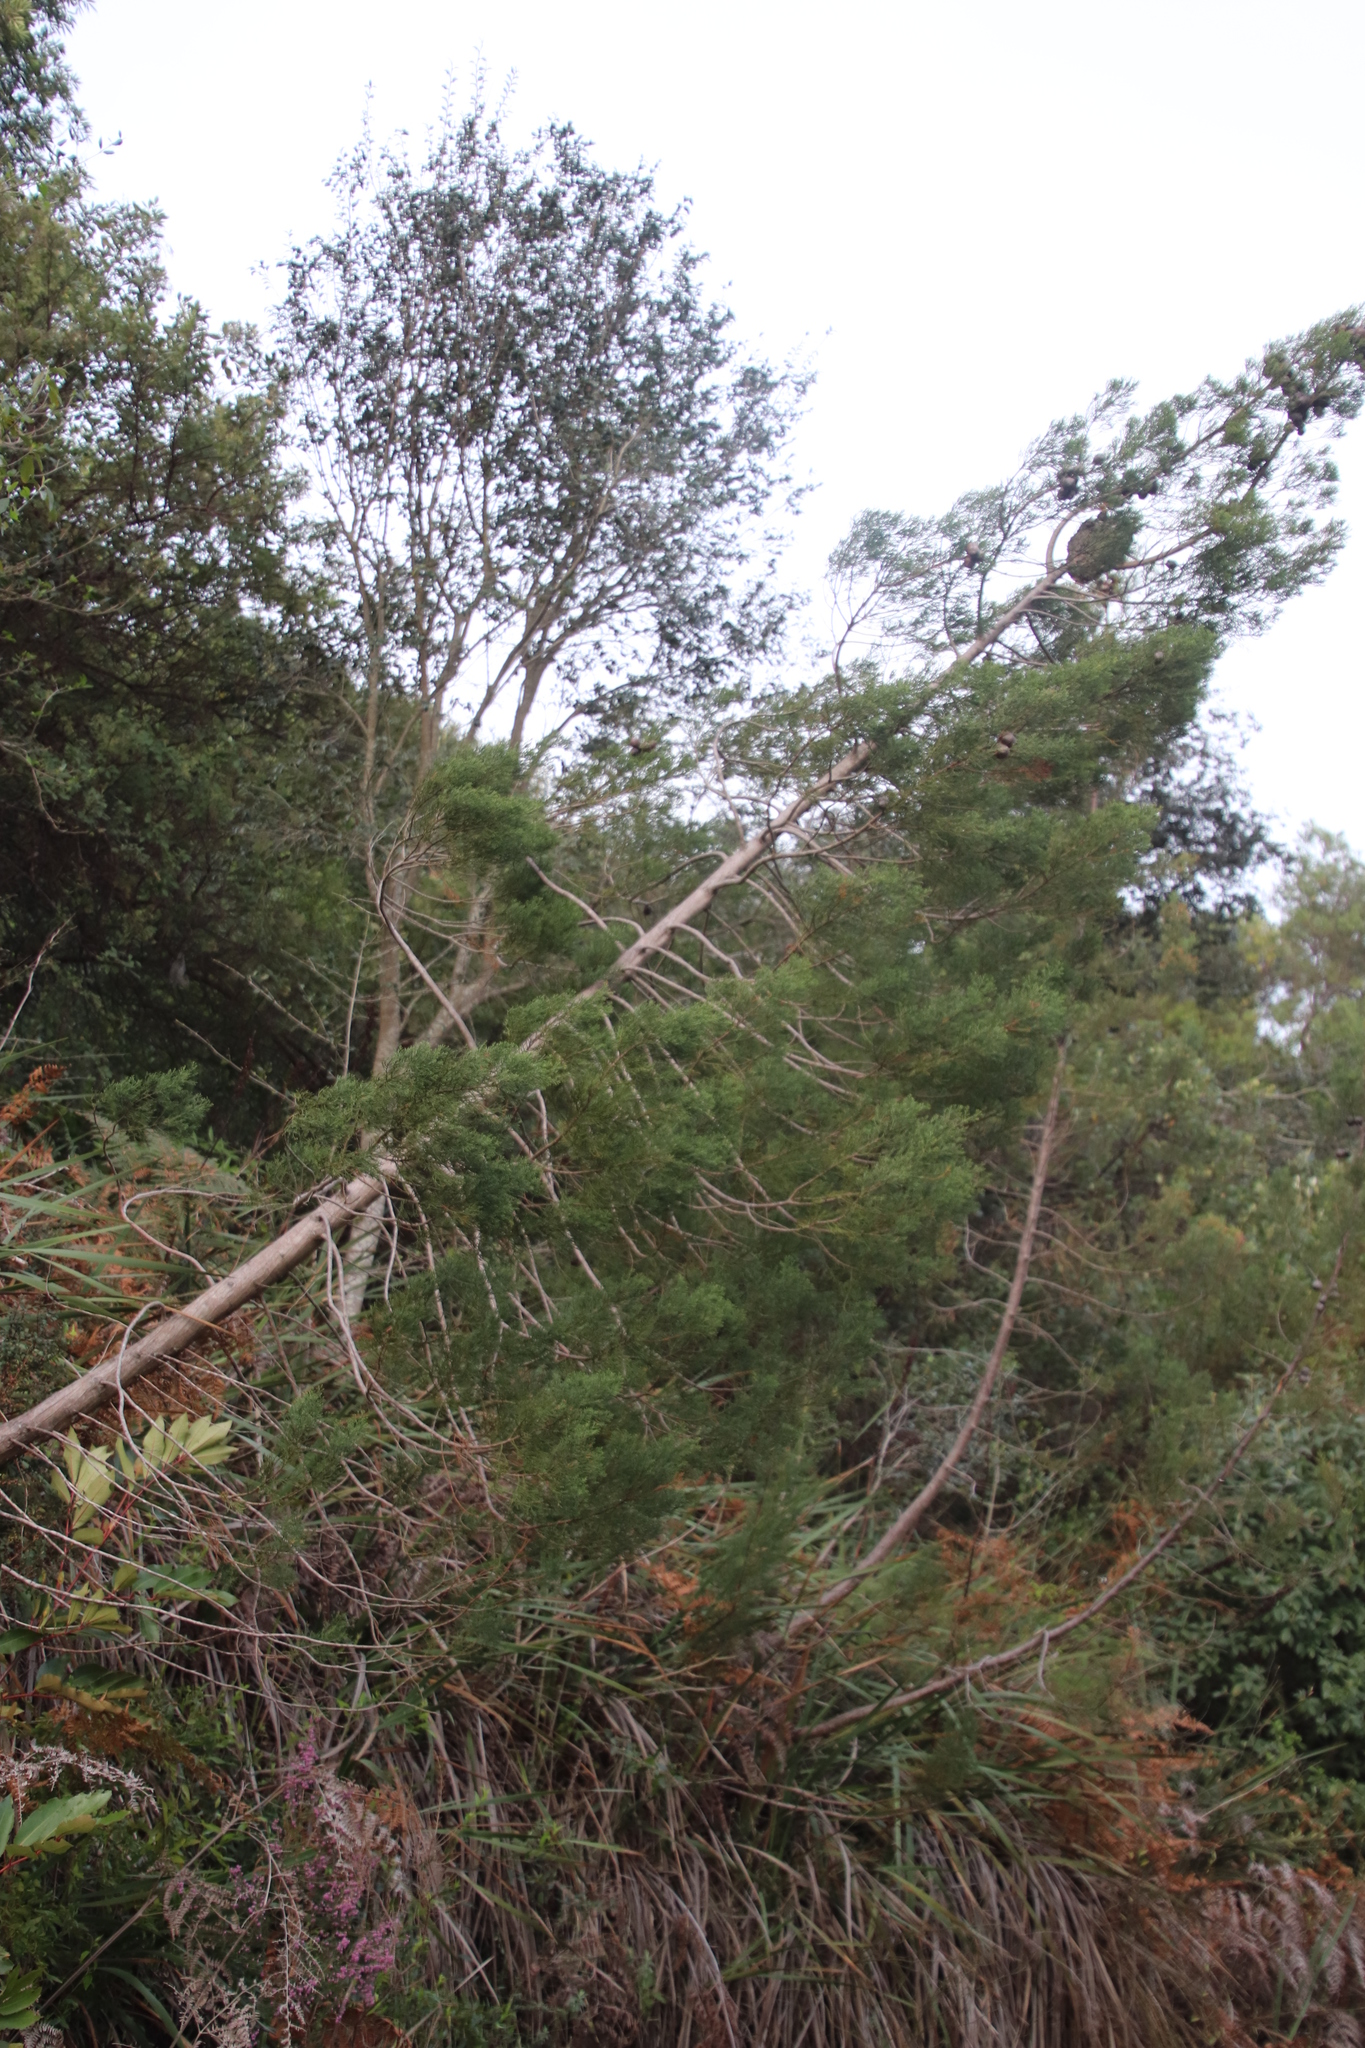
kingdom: Plantae
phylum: Tracheophyta
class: Pinopsida
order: Pinales
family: Cupressaceae
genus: Widdringtonia
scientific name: Widdringtonia nodiflora
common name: Cape cypress
